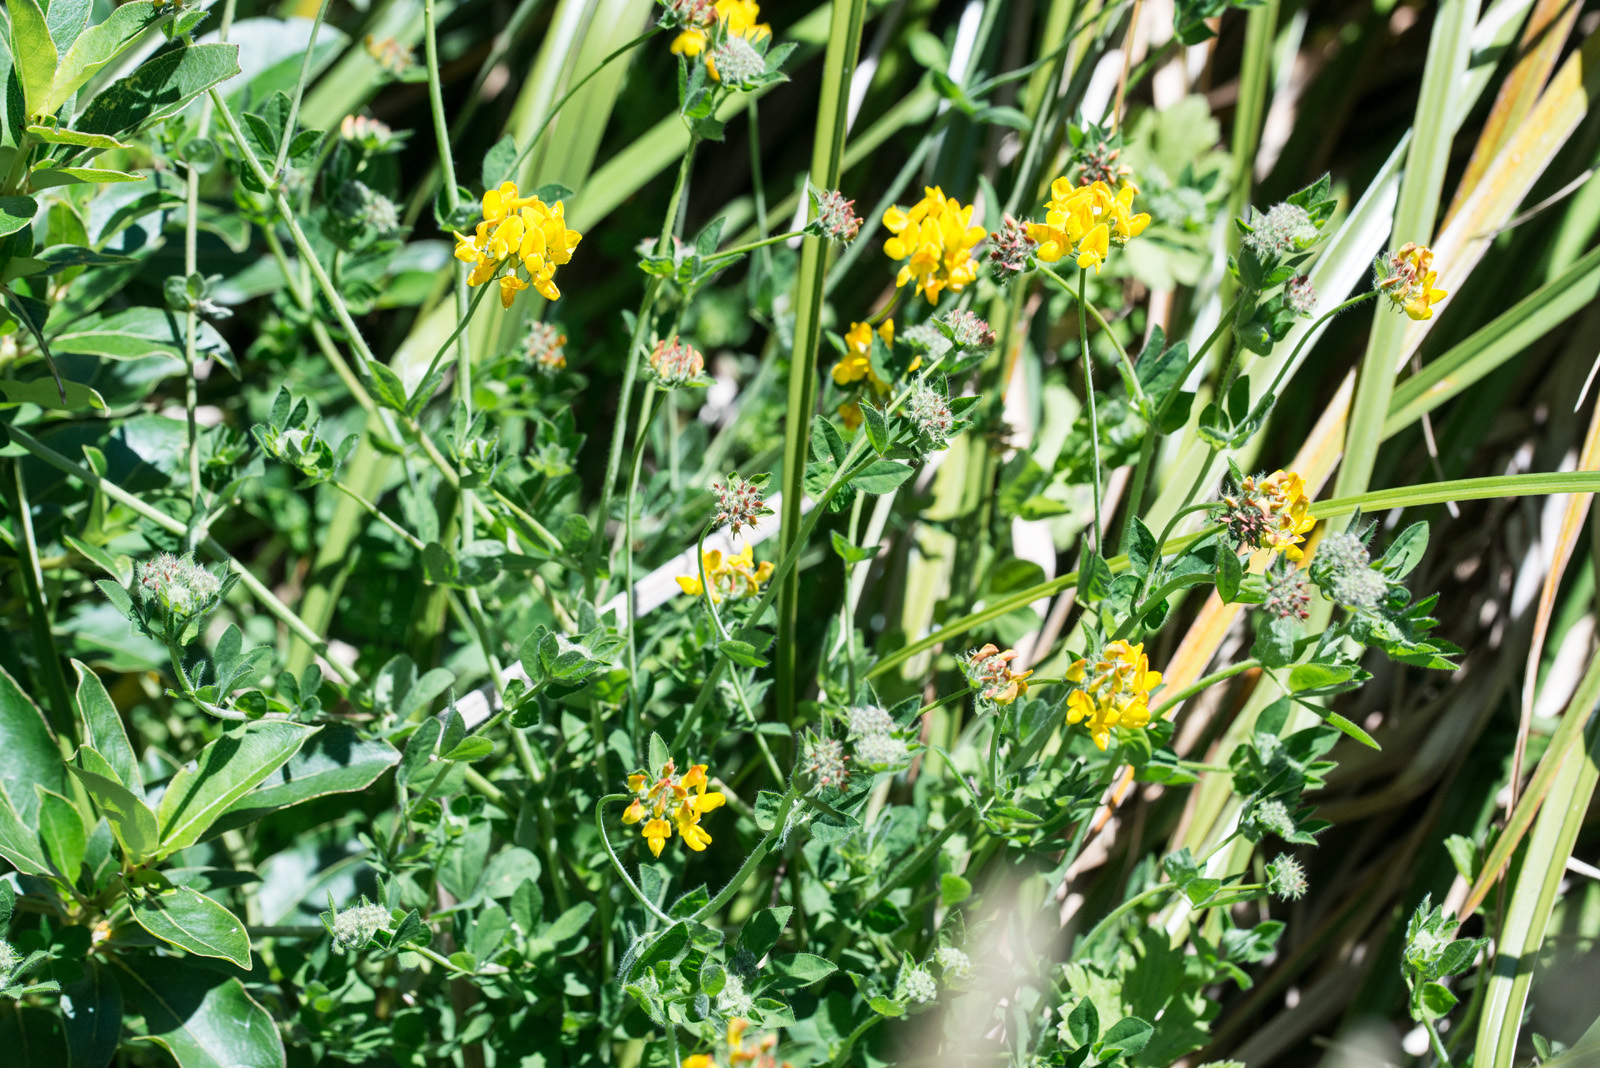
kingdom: Plantae
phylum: Tracheophyta
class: Magnoliopsida
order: Fabales
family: Fabaceae
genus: Lotus
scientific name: Lotus pedunculatus
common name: Greater birdsfoot-trefoil
